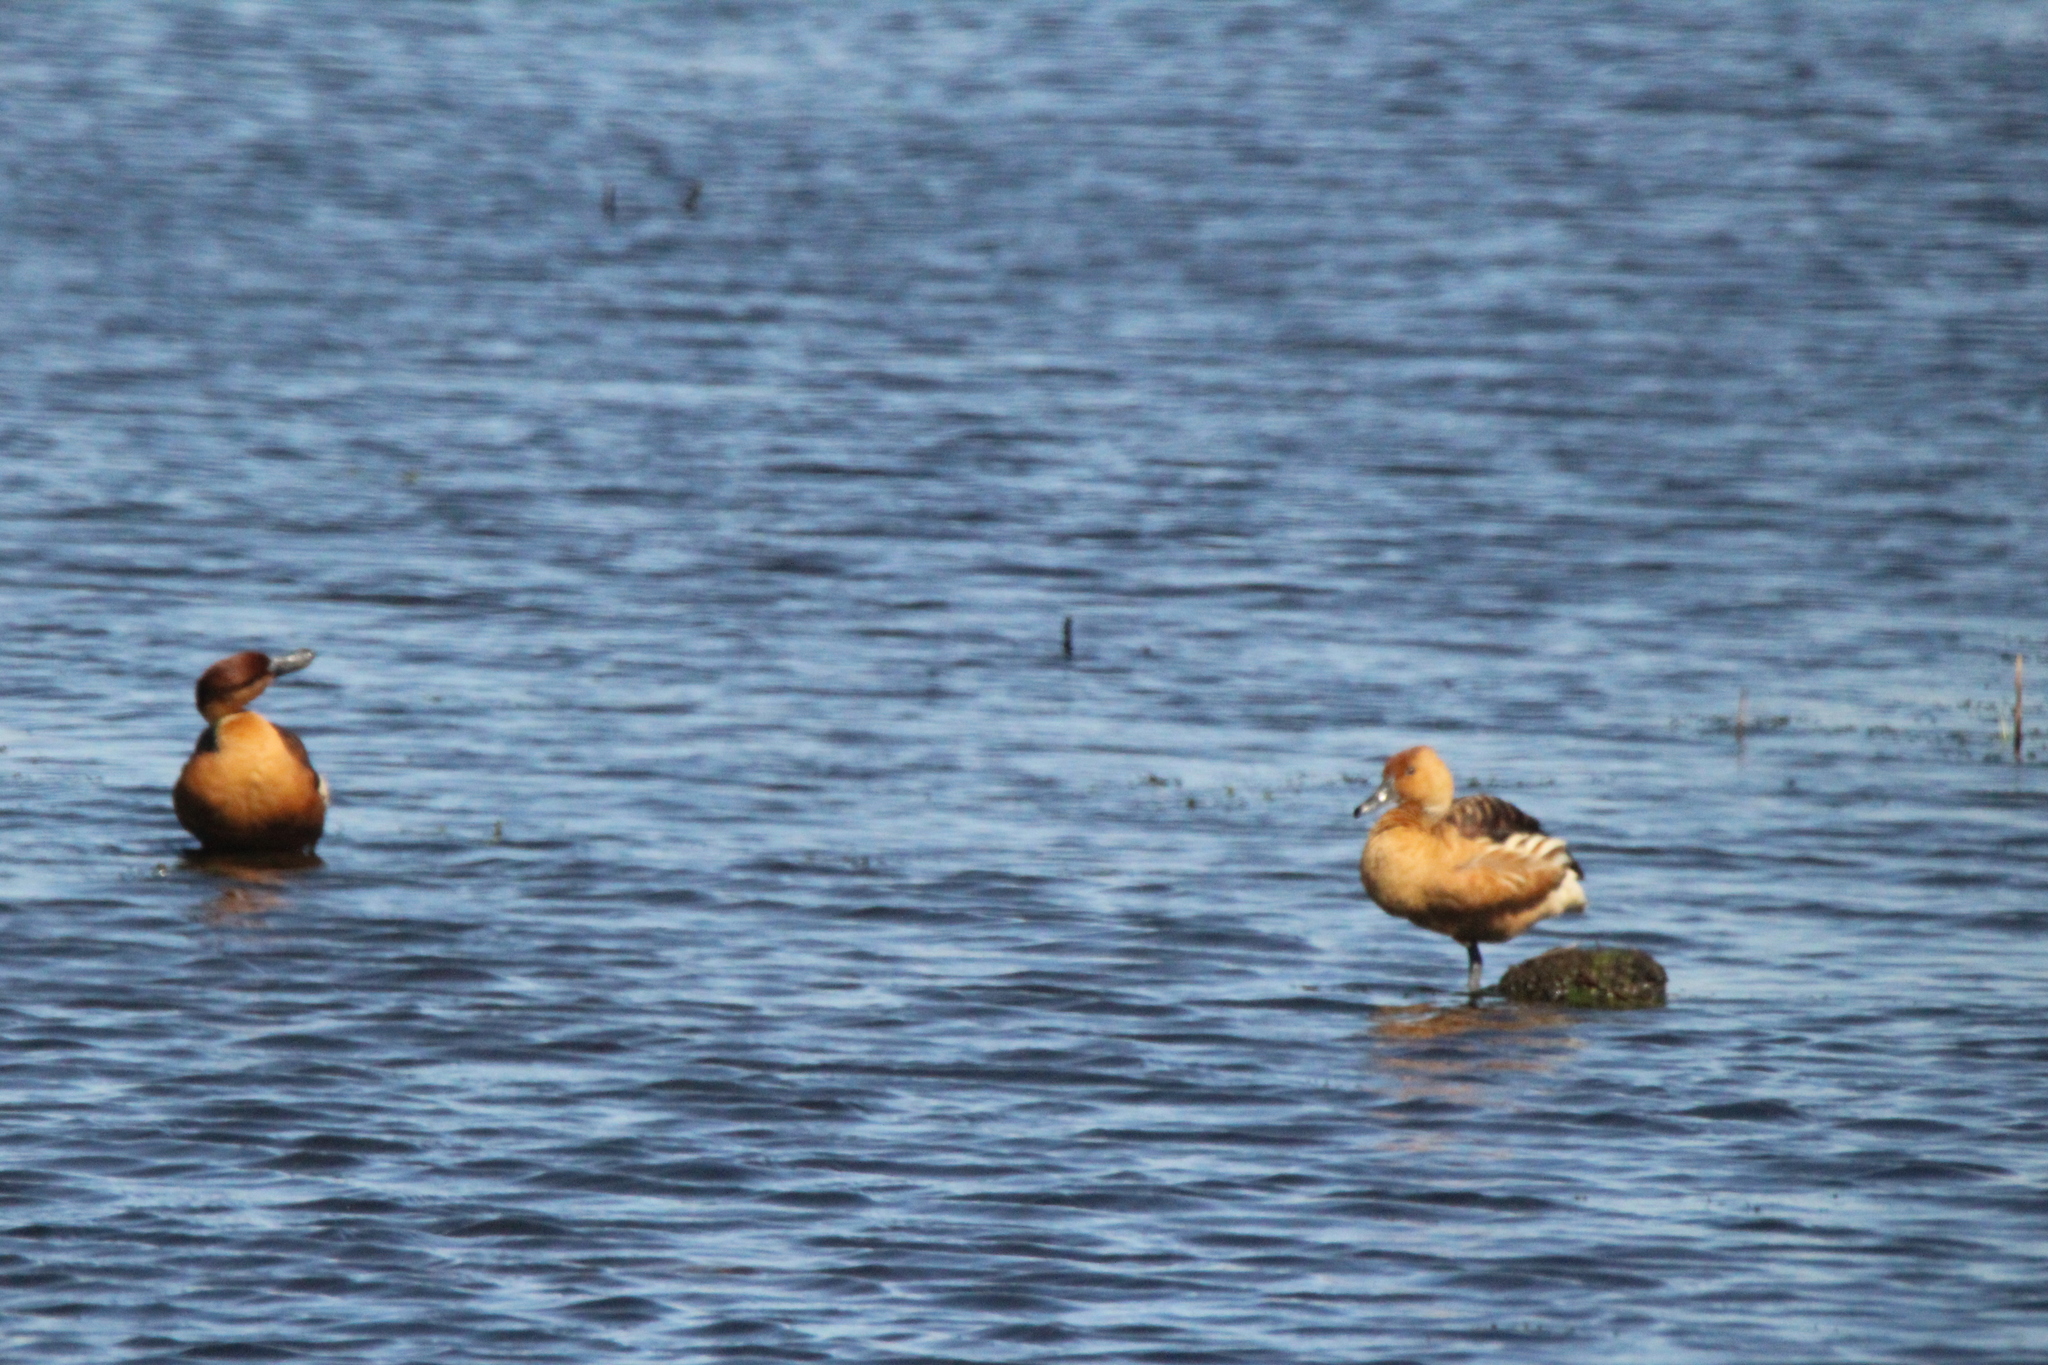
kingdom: Animalia
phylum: Chordata
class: Aves
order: Anseriformes
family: Anatidae
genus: Dendrocygna
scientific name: Dendrocygna bicolor
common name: Fulvous whistling duck
